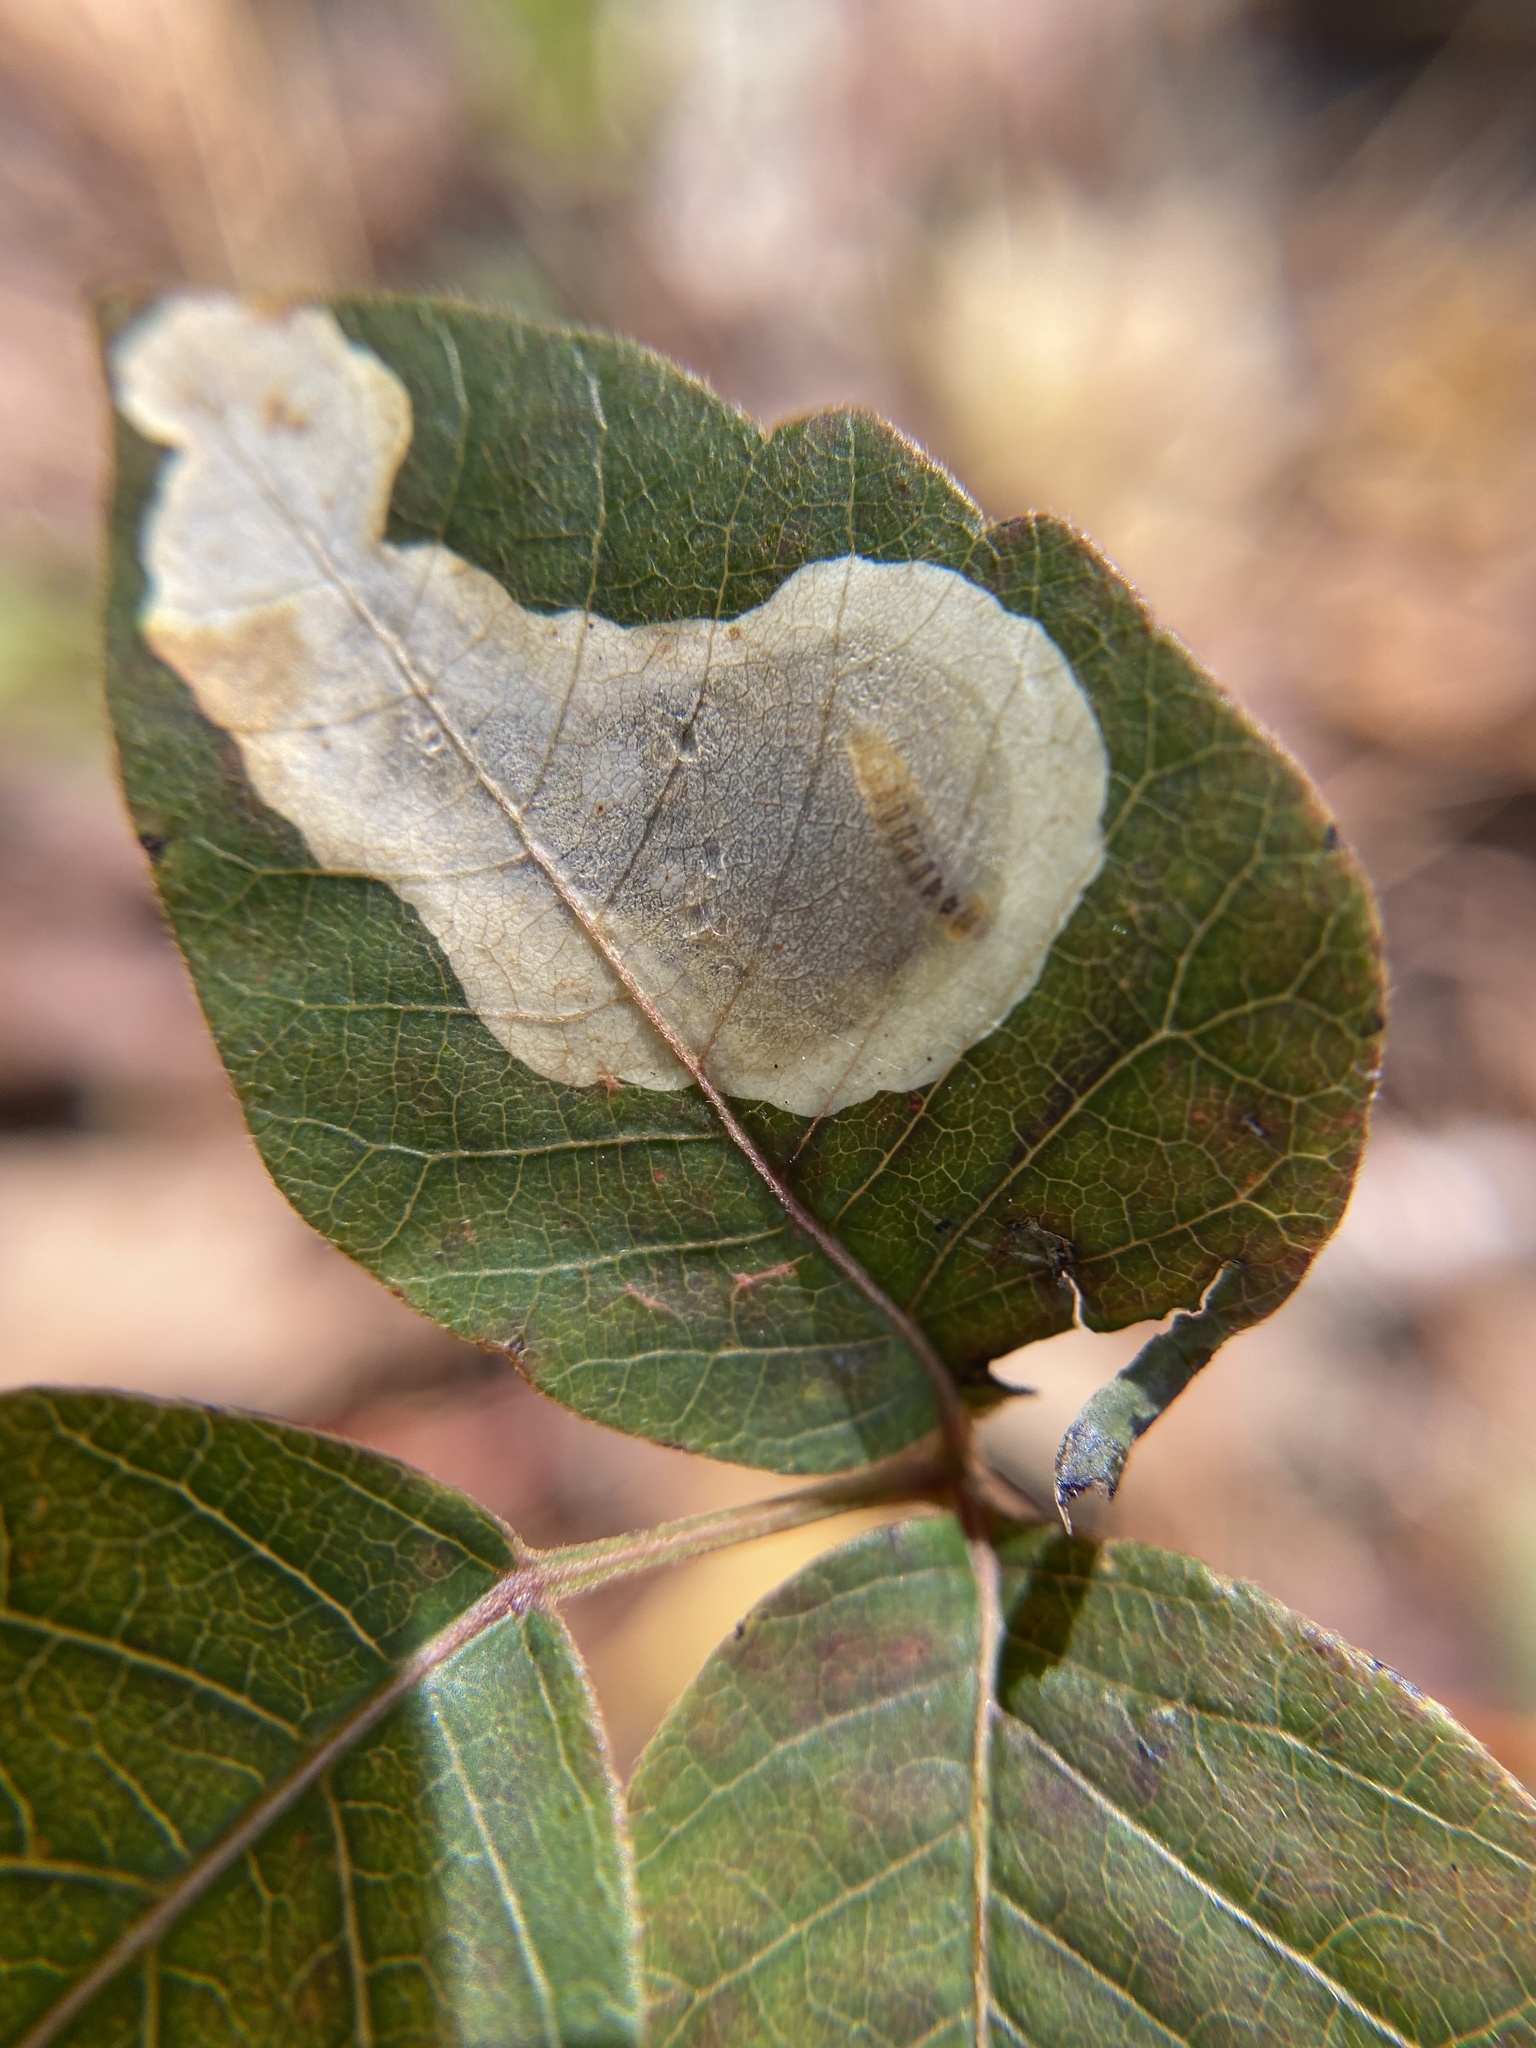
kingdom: Animalia
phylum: Arthropoda
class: Insecta
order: Lepidoptera
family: Gracillariidae
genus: Cameraria
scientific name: Cameraria guttifinitella
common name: Poison ivy leaf-miner moth
